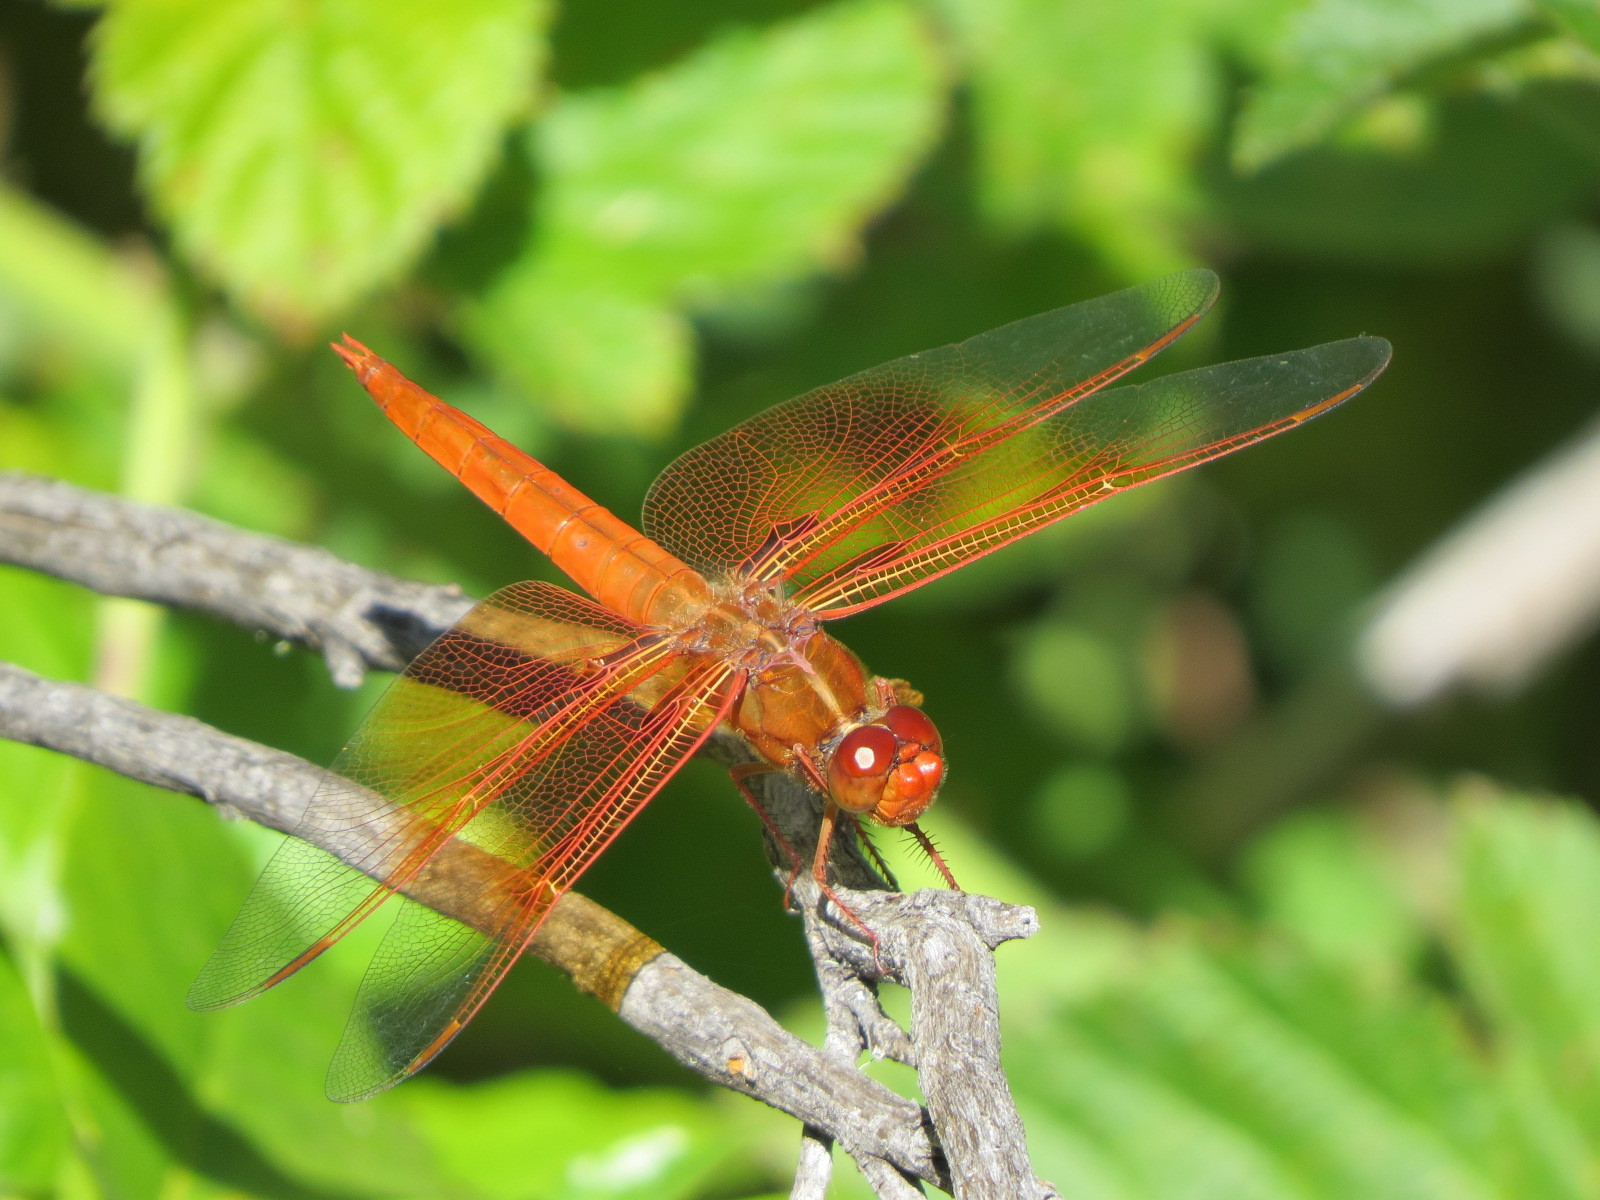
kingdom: Animalia
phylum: Arthropoda
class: Insecta
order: Odonata
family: Libellulidae
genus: Libellula
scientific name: Libellula saturata
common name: Flame skimmer
